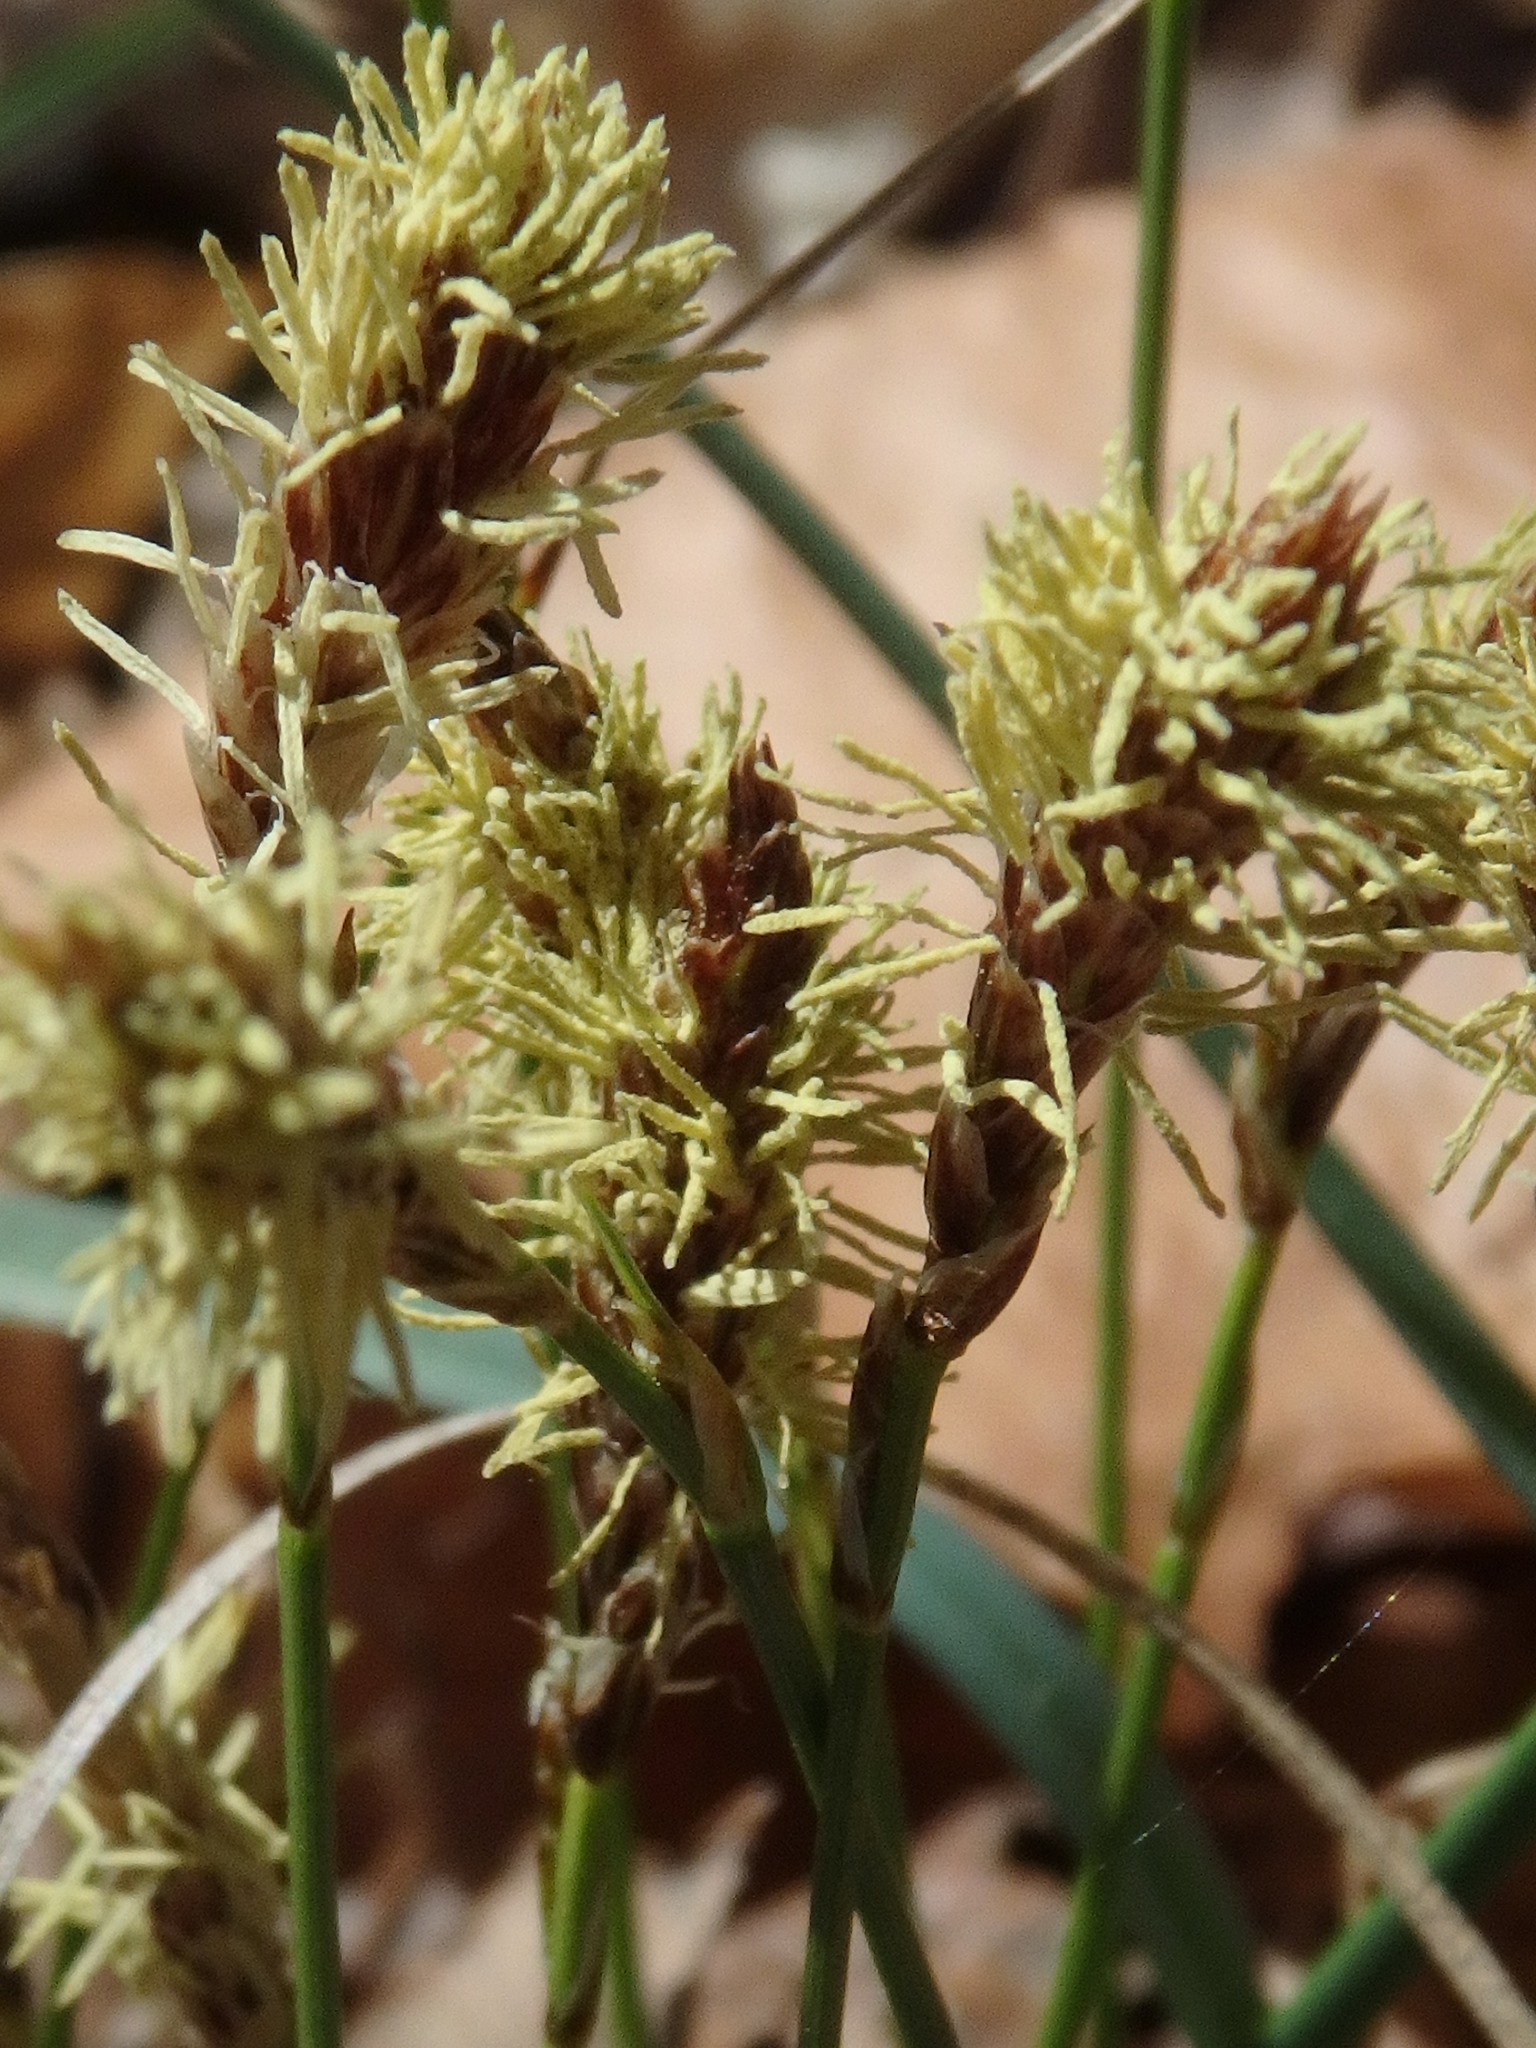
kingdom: Plantae
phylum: Tracheophyta
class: Liliopsida
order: Poales
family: Cyperaceae
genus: Carex
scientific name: Carex pensylvanica
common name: Common oak sedge
